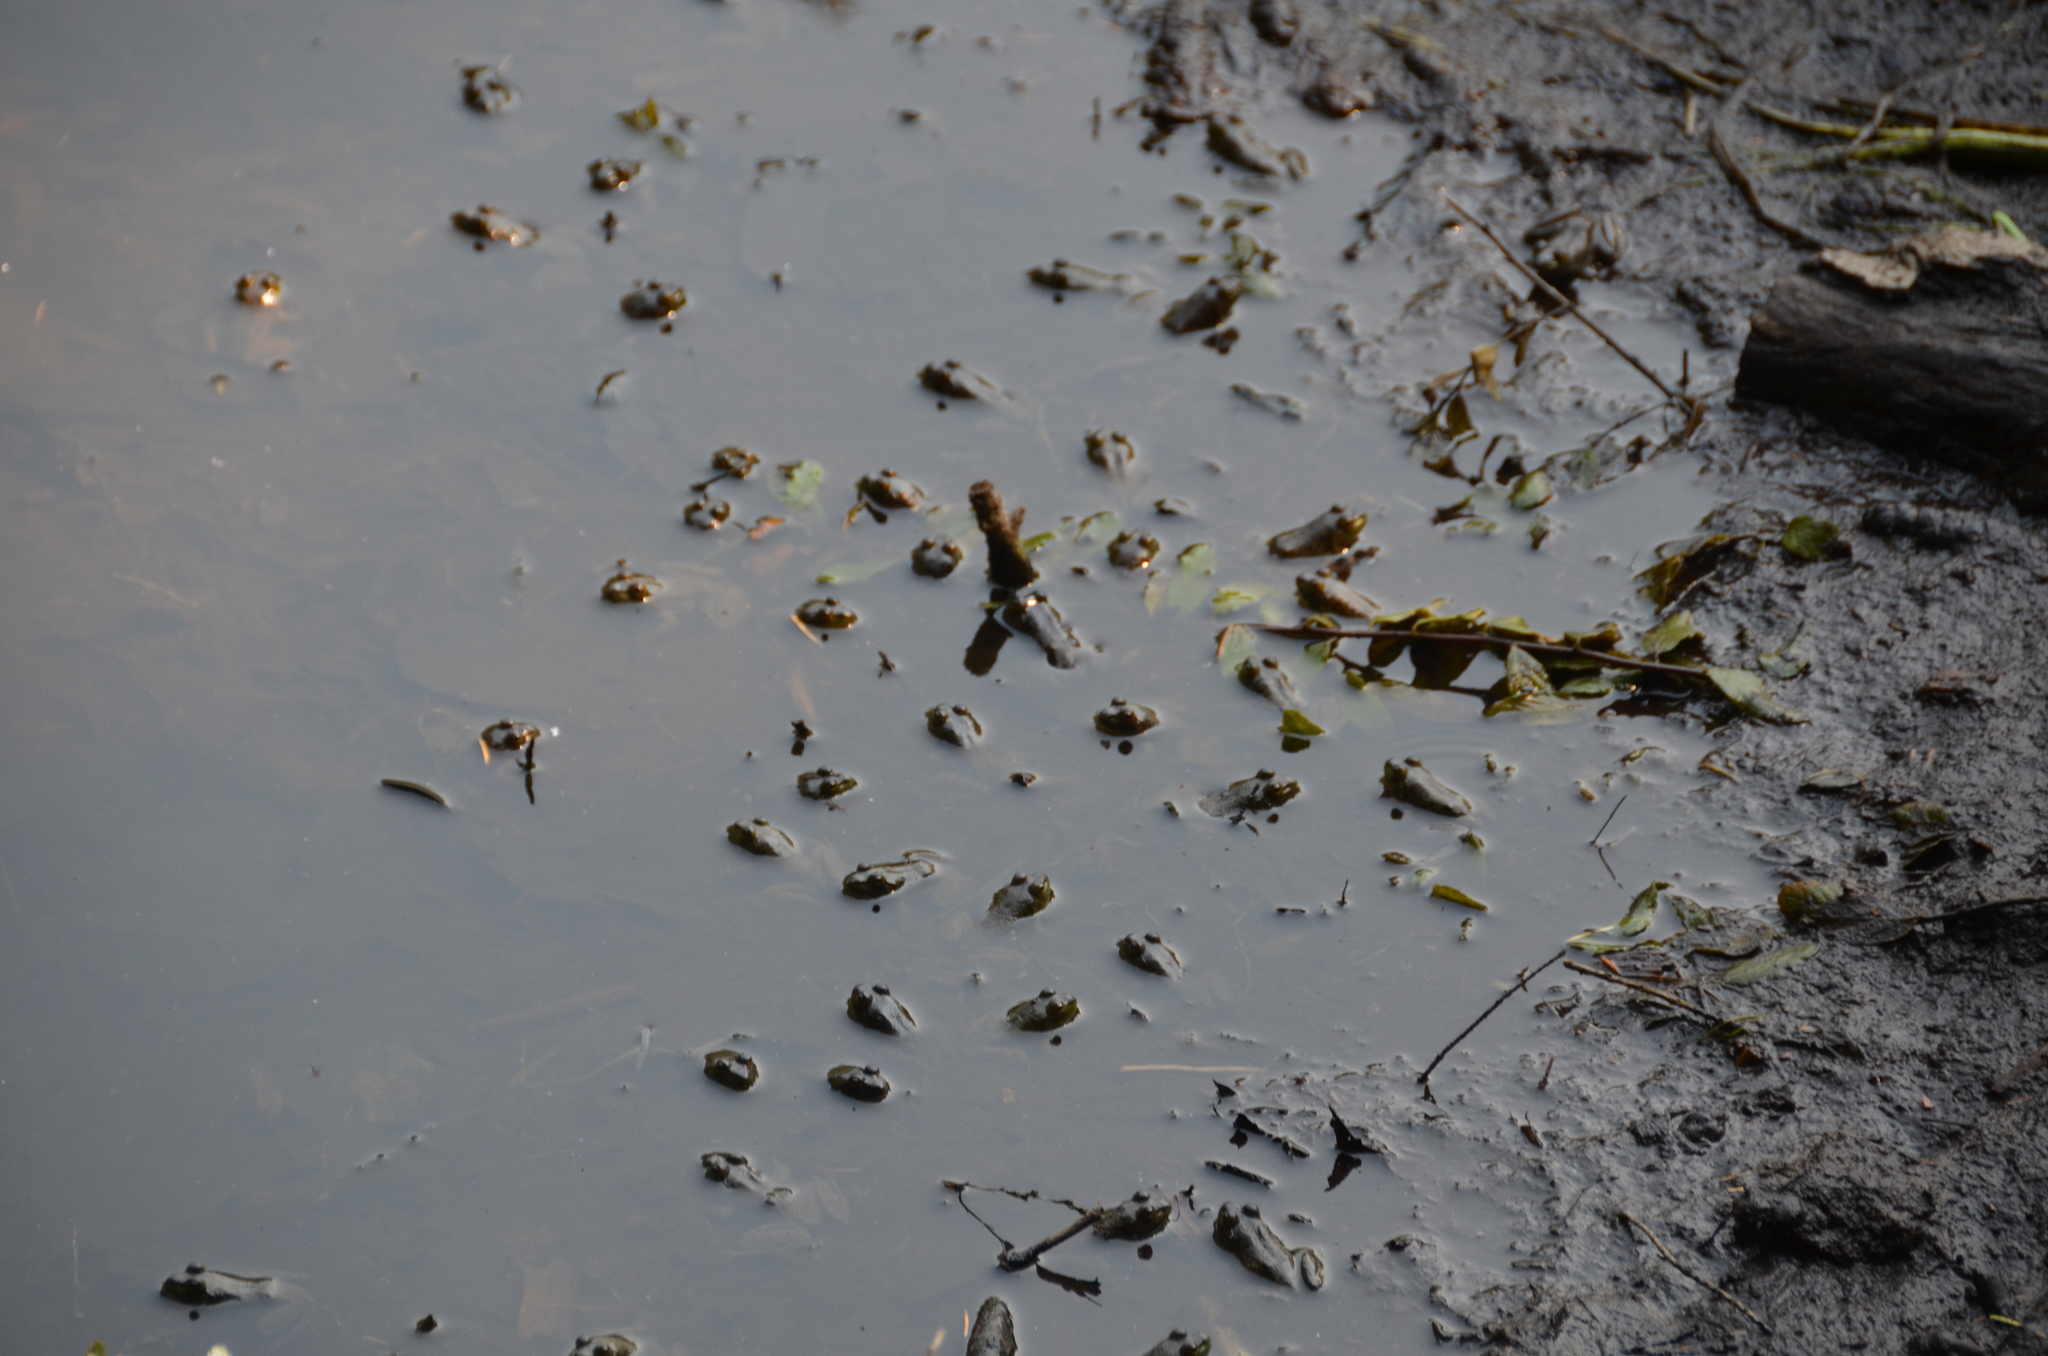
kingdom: Animalia
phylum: Chordata
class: Amphibia
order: Anura
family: Ranidae
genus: Lithobates
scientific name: Lithobates catesbeianus
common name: American bullfrog
